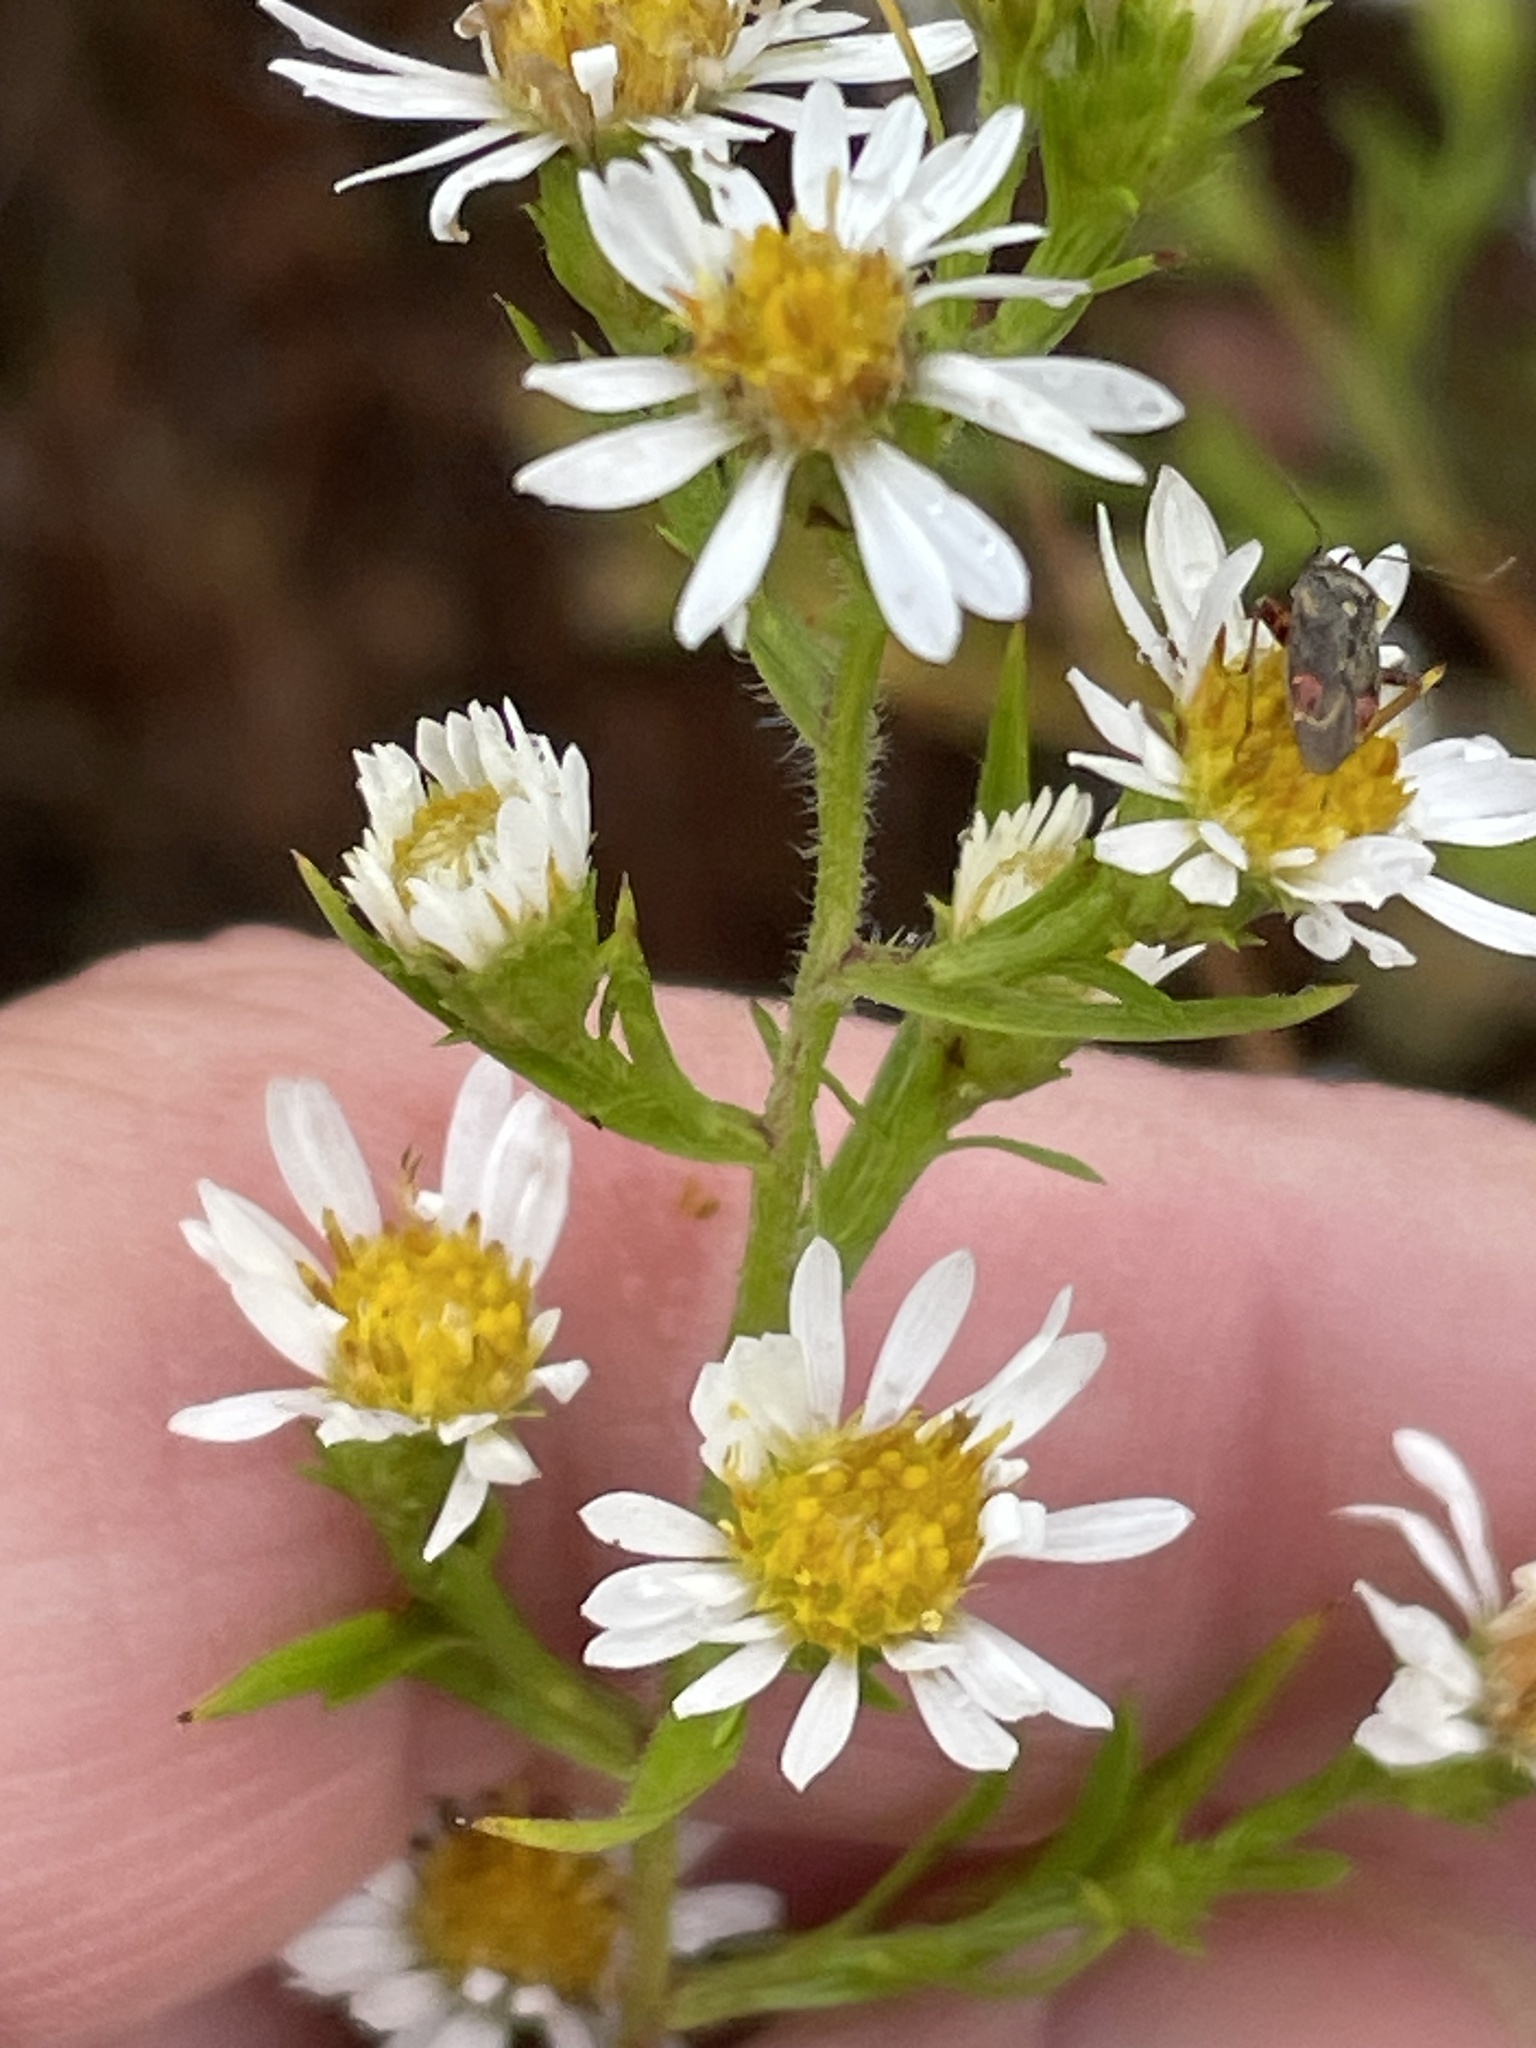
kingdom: Plantae
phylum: Tracheophyta
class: Magnoliopsida
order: Asterales
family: Asteraceae
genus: Symphyotrichum
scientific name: Symphyotrichum pilosum
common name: Awl aster
